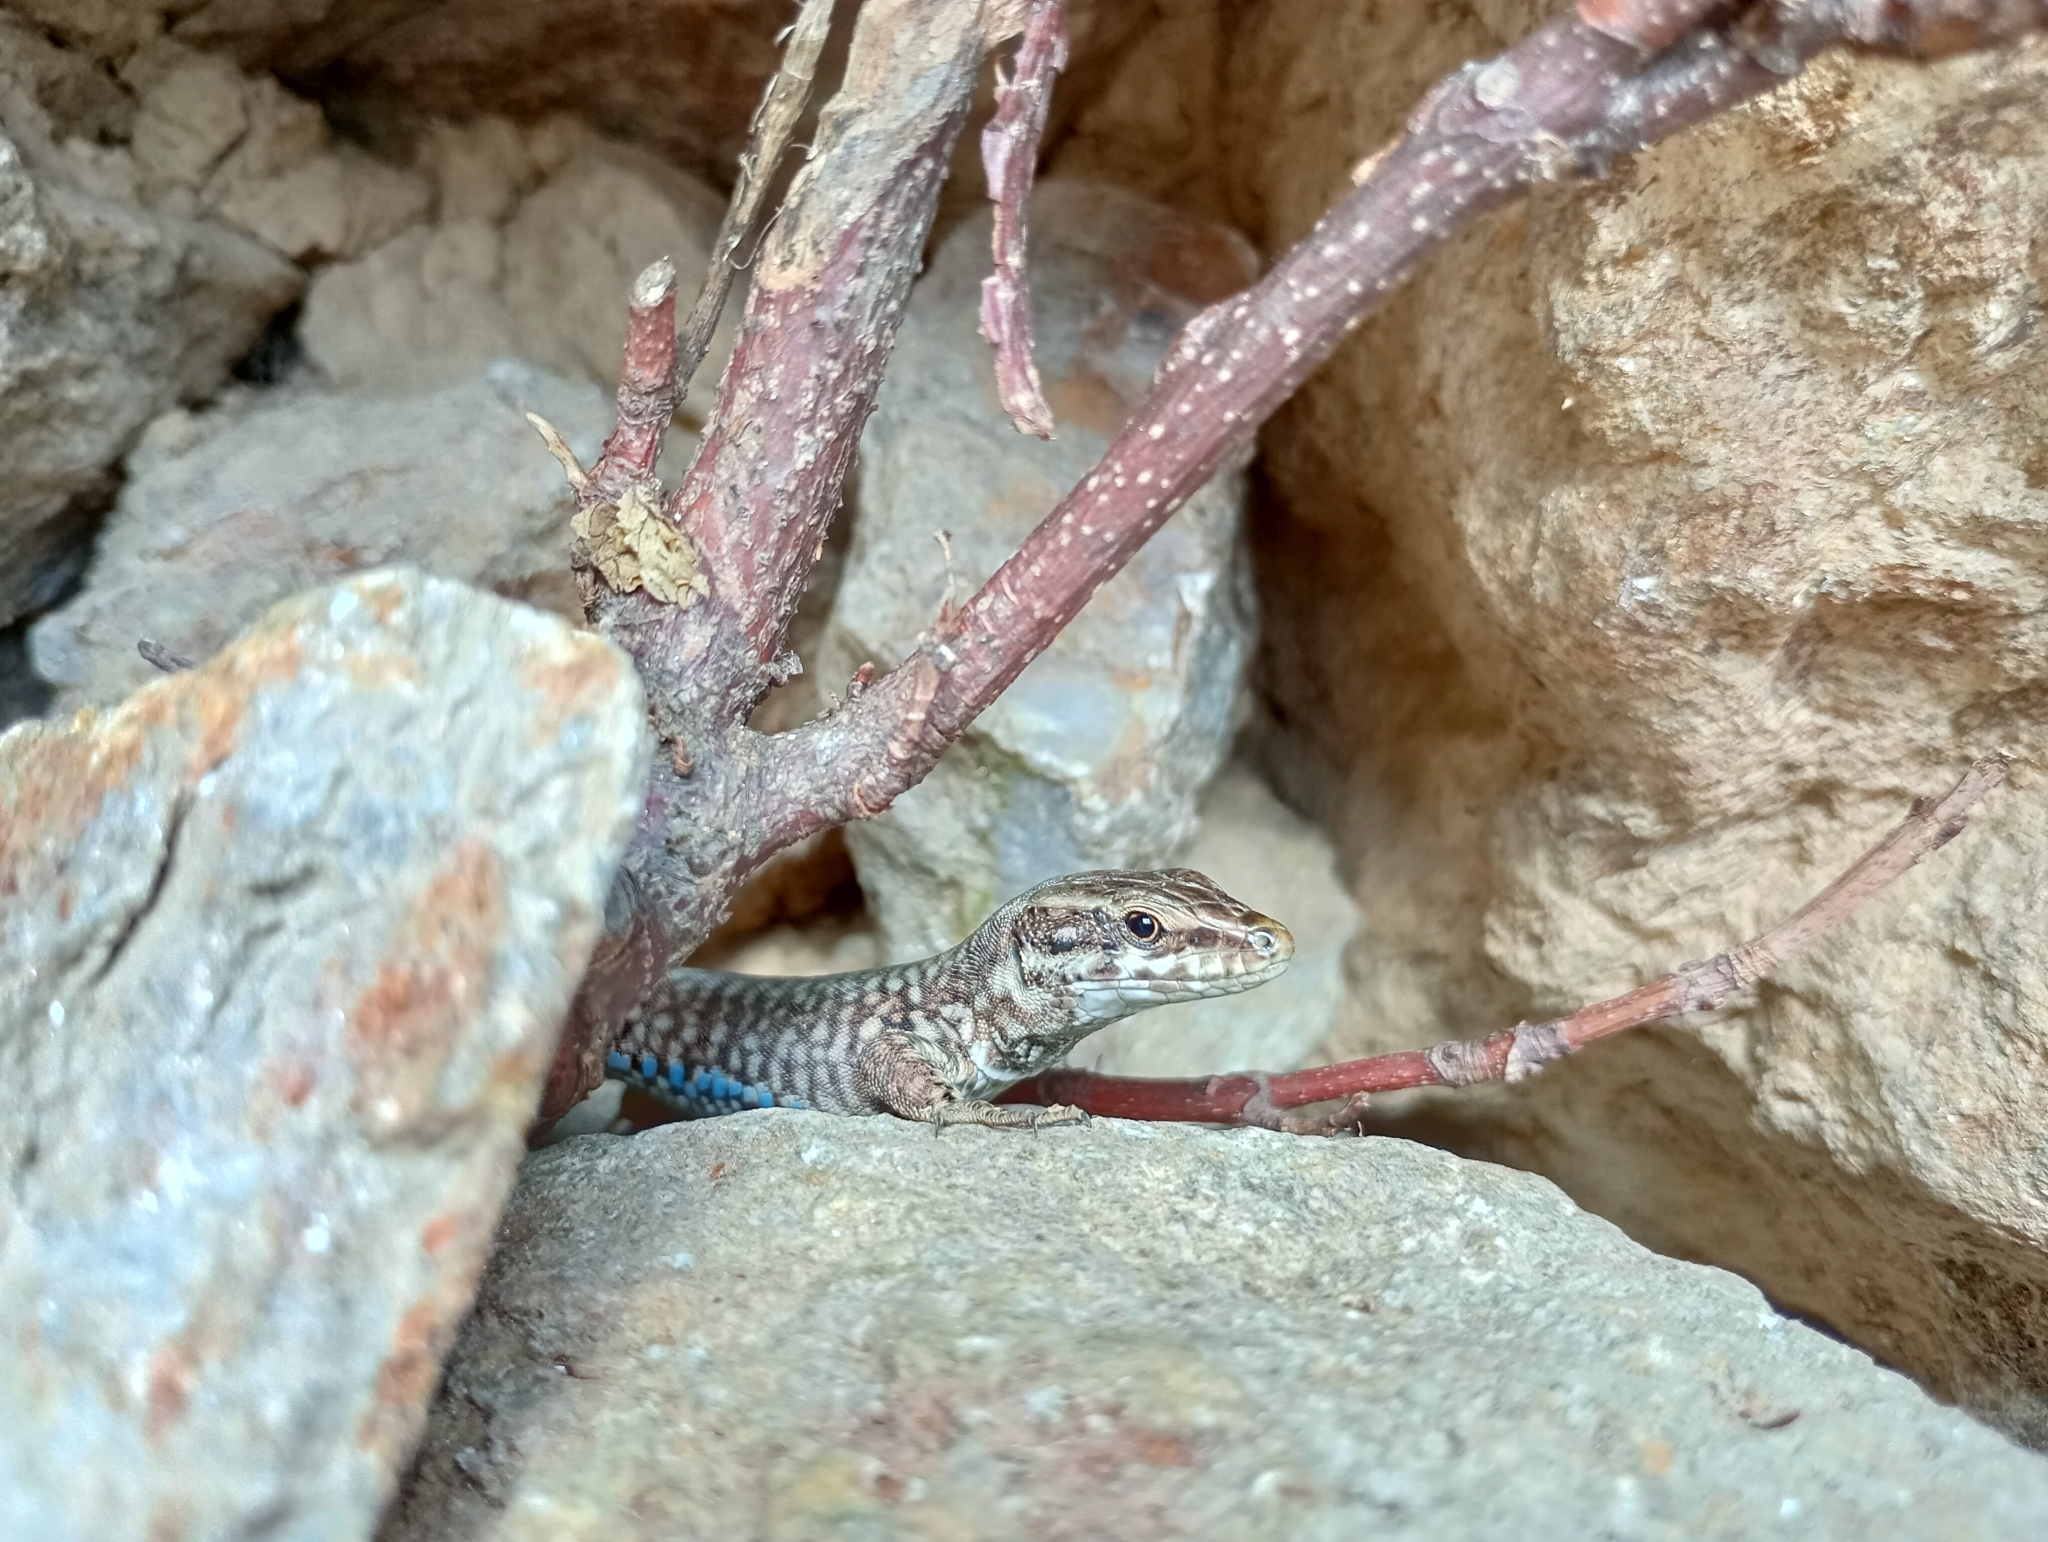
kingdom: Animalia
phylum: Chordata
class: Squamata
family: Lacertidae
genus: Podarcis
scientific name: Podarcis muralis
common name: Common wall lizard
